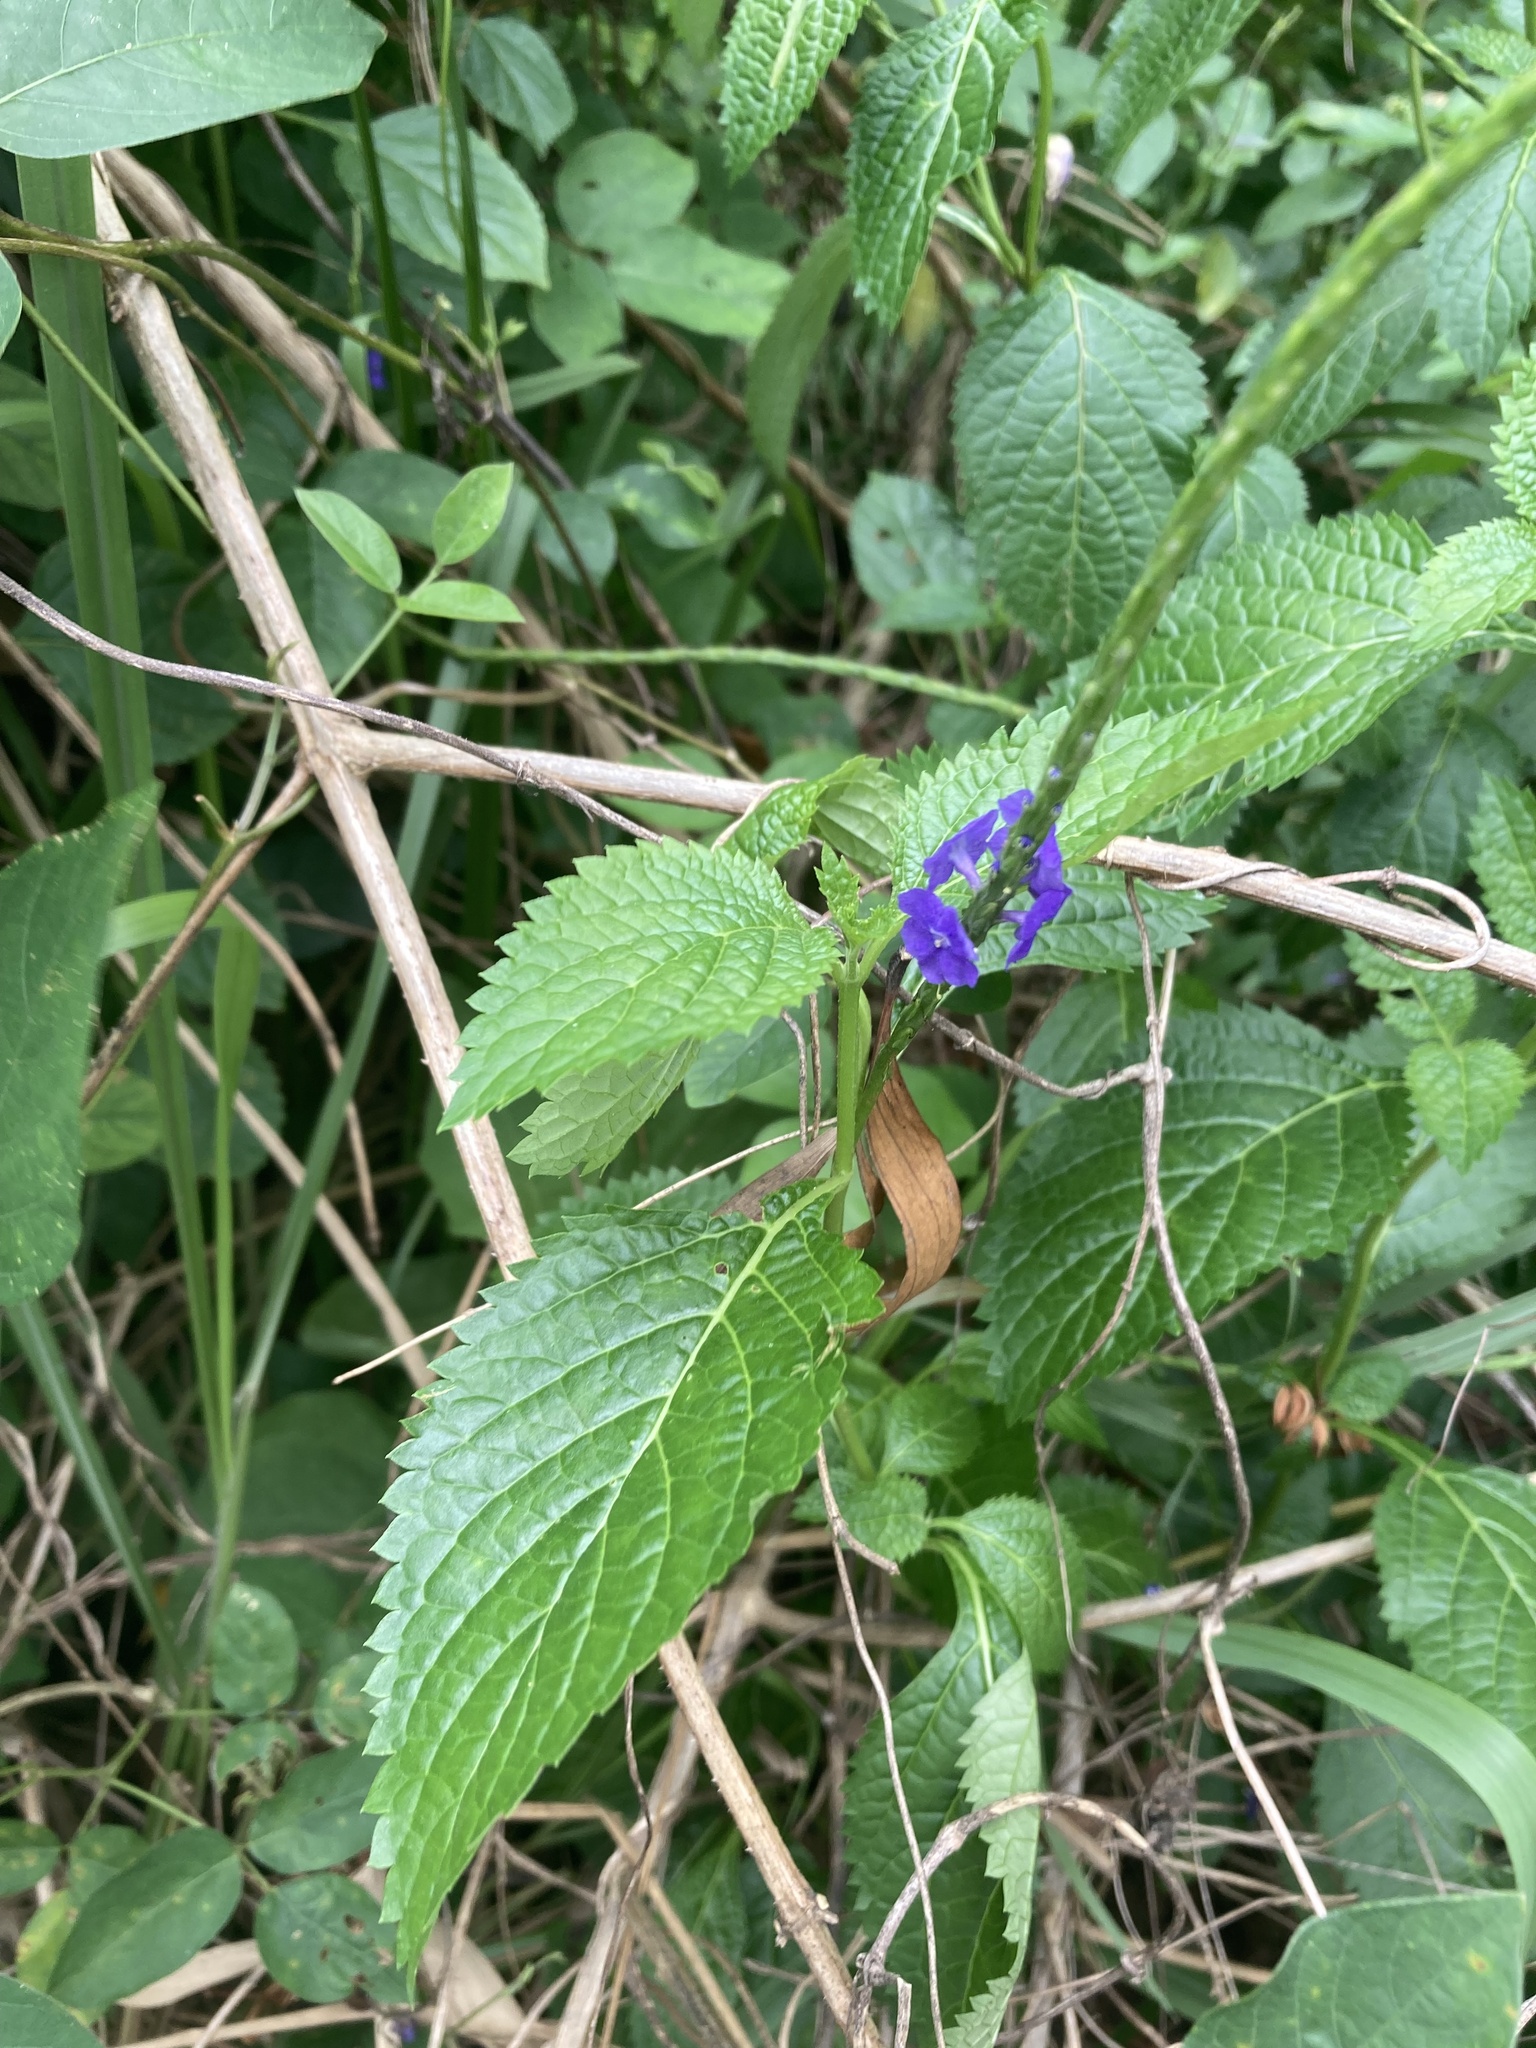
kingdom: Plantae
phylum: Tracheophyta
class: Magnoliopsida
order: Lamiales
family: Verbenaceae
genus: Stachytarpheta
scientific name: Stachytarpheta jamaicensis
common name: Light-blue snakeweed
